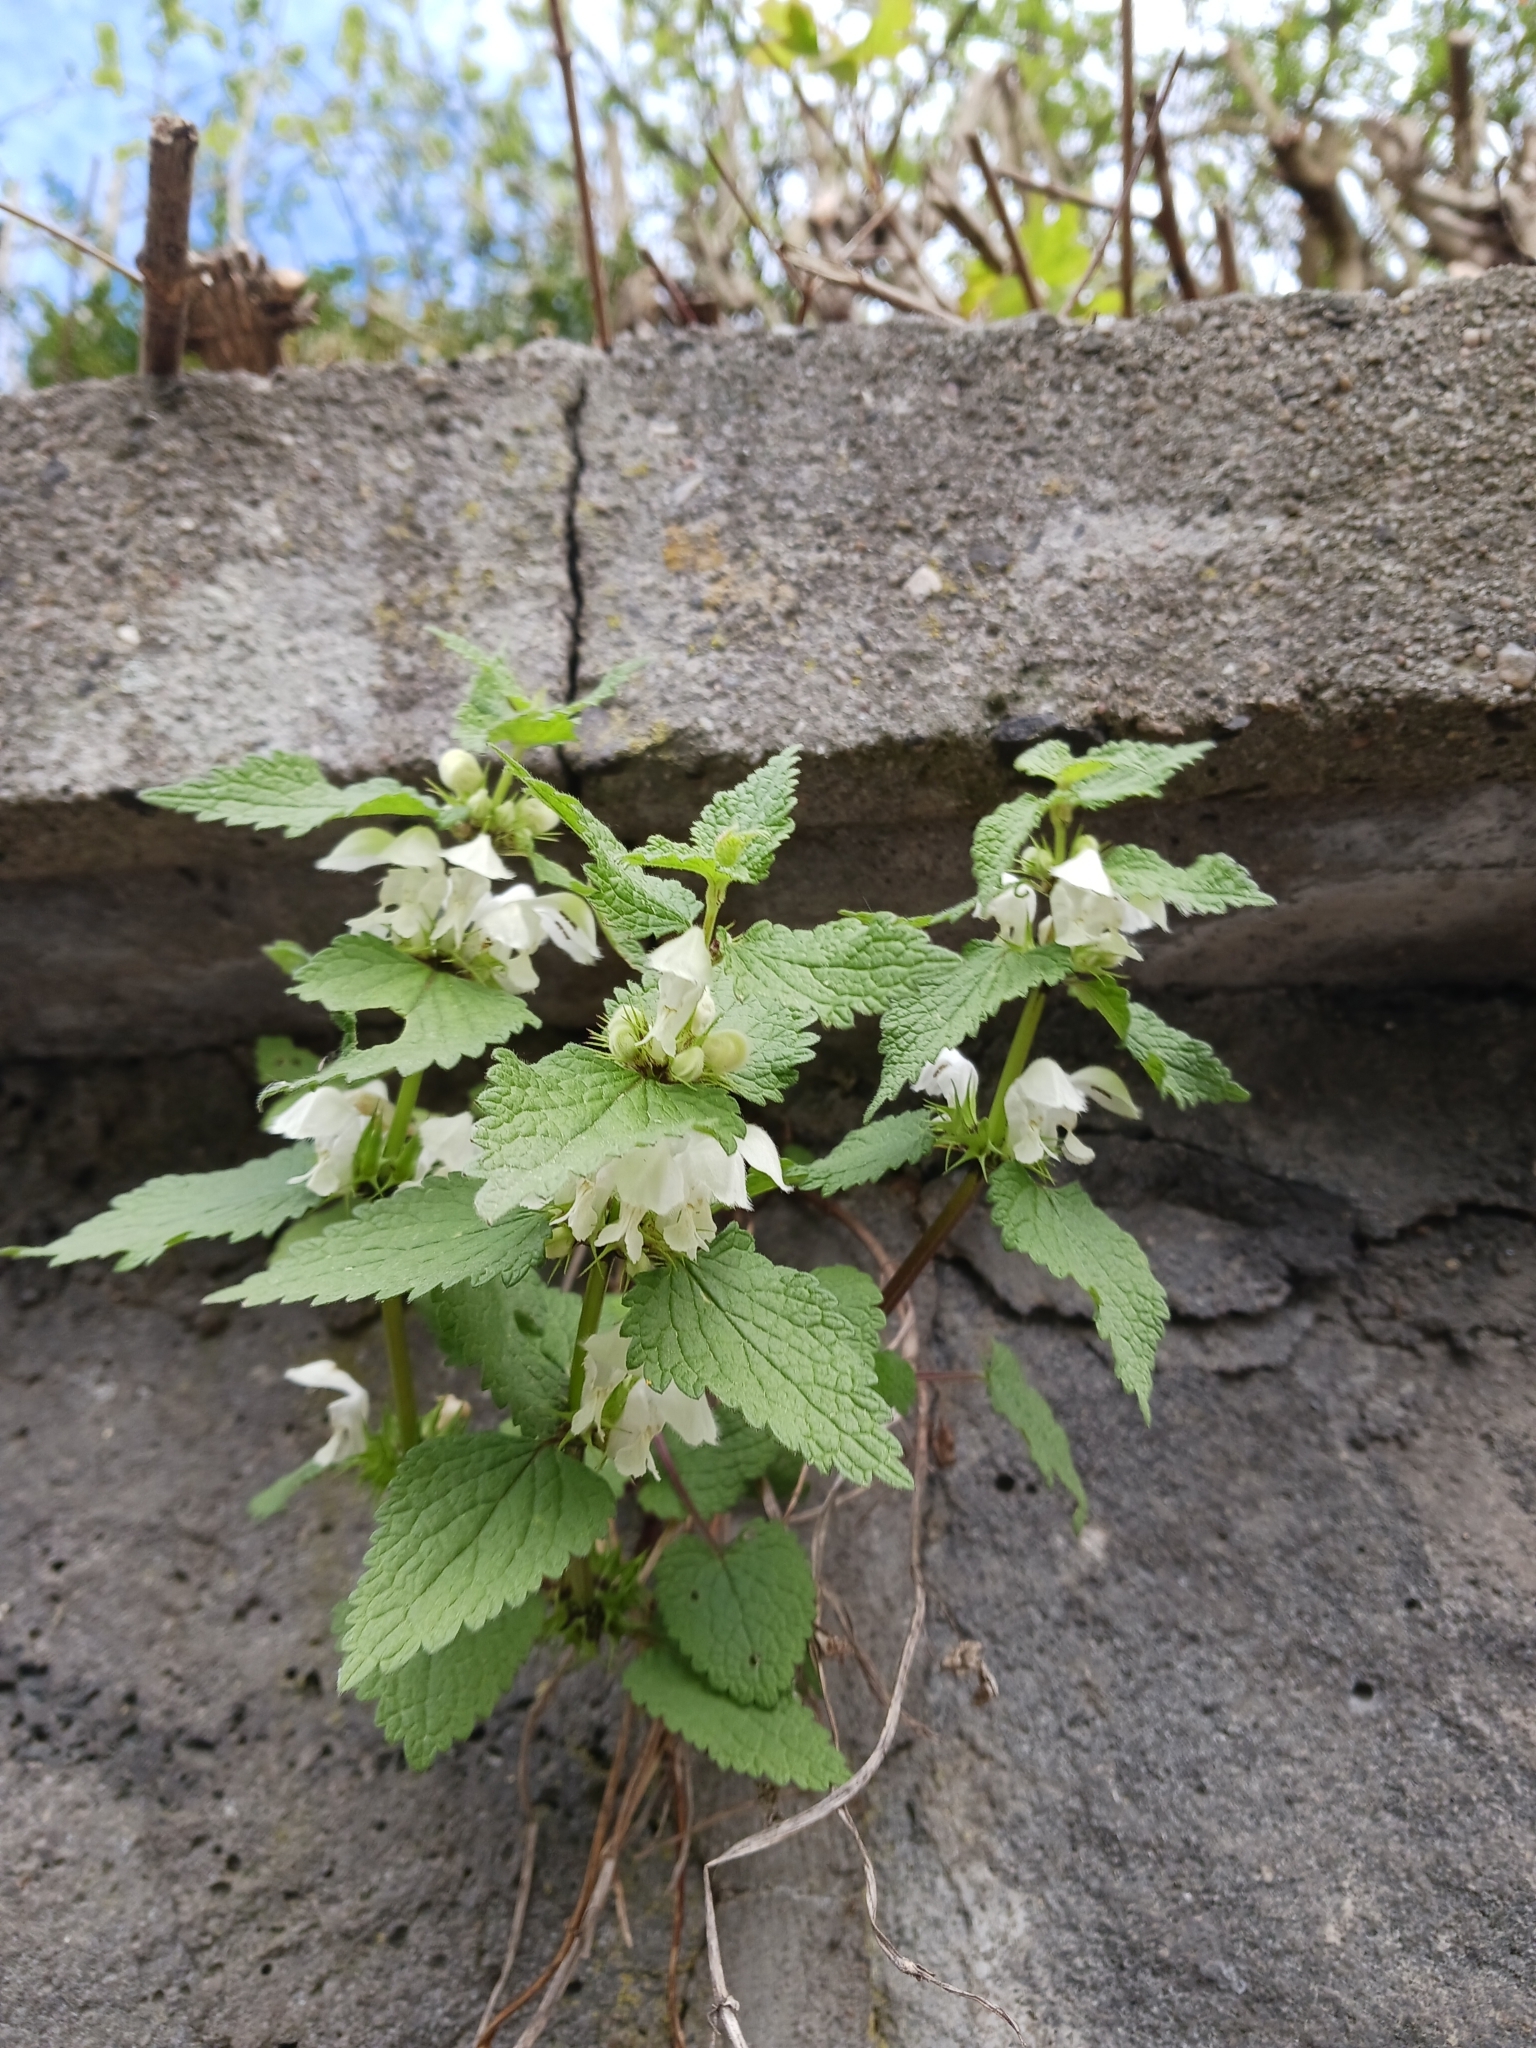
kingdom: Plantae
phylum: Tracheophyta
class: Magnoliopsida
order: Lamiales
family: Lamiaceae
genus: Lamium
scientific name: Lamium album
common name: White dead-nettle
